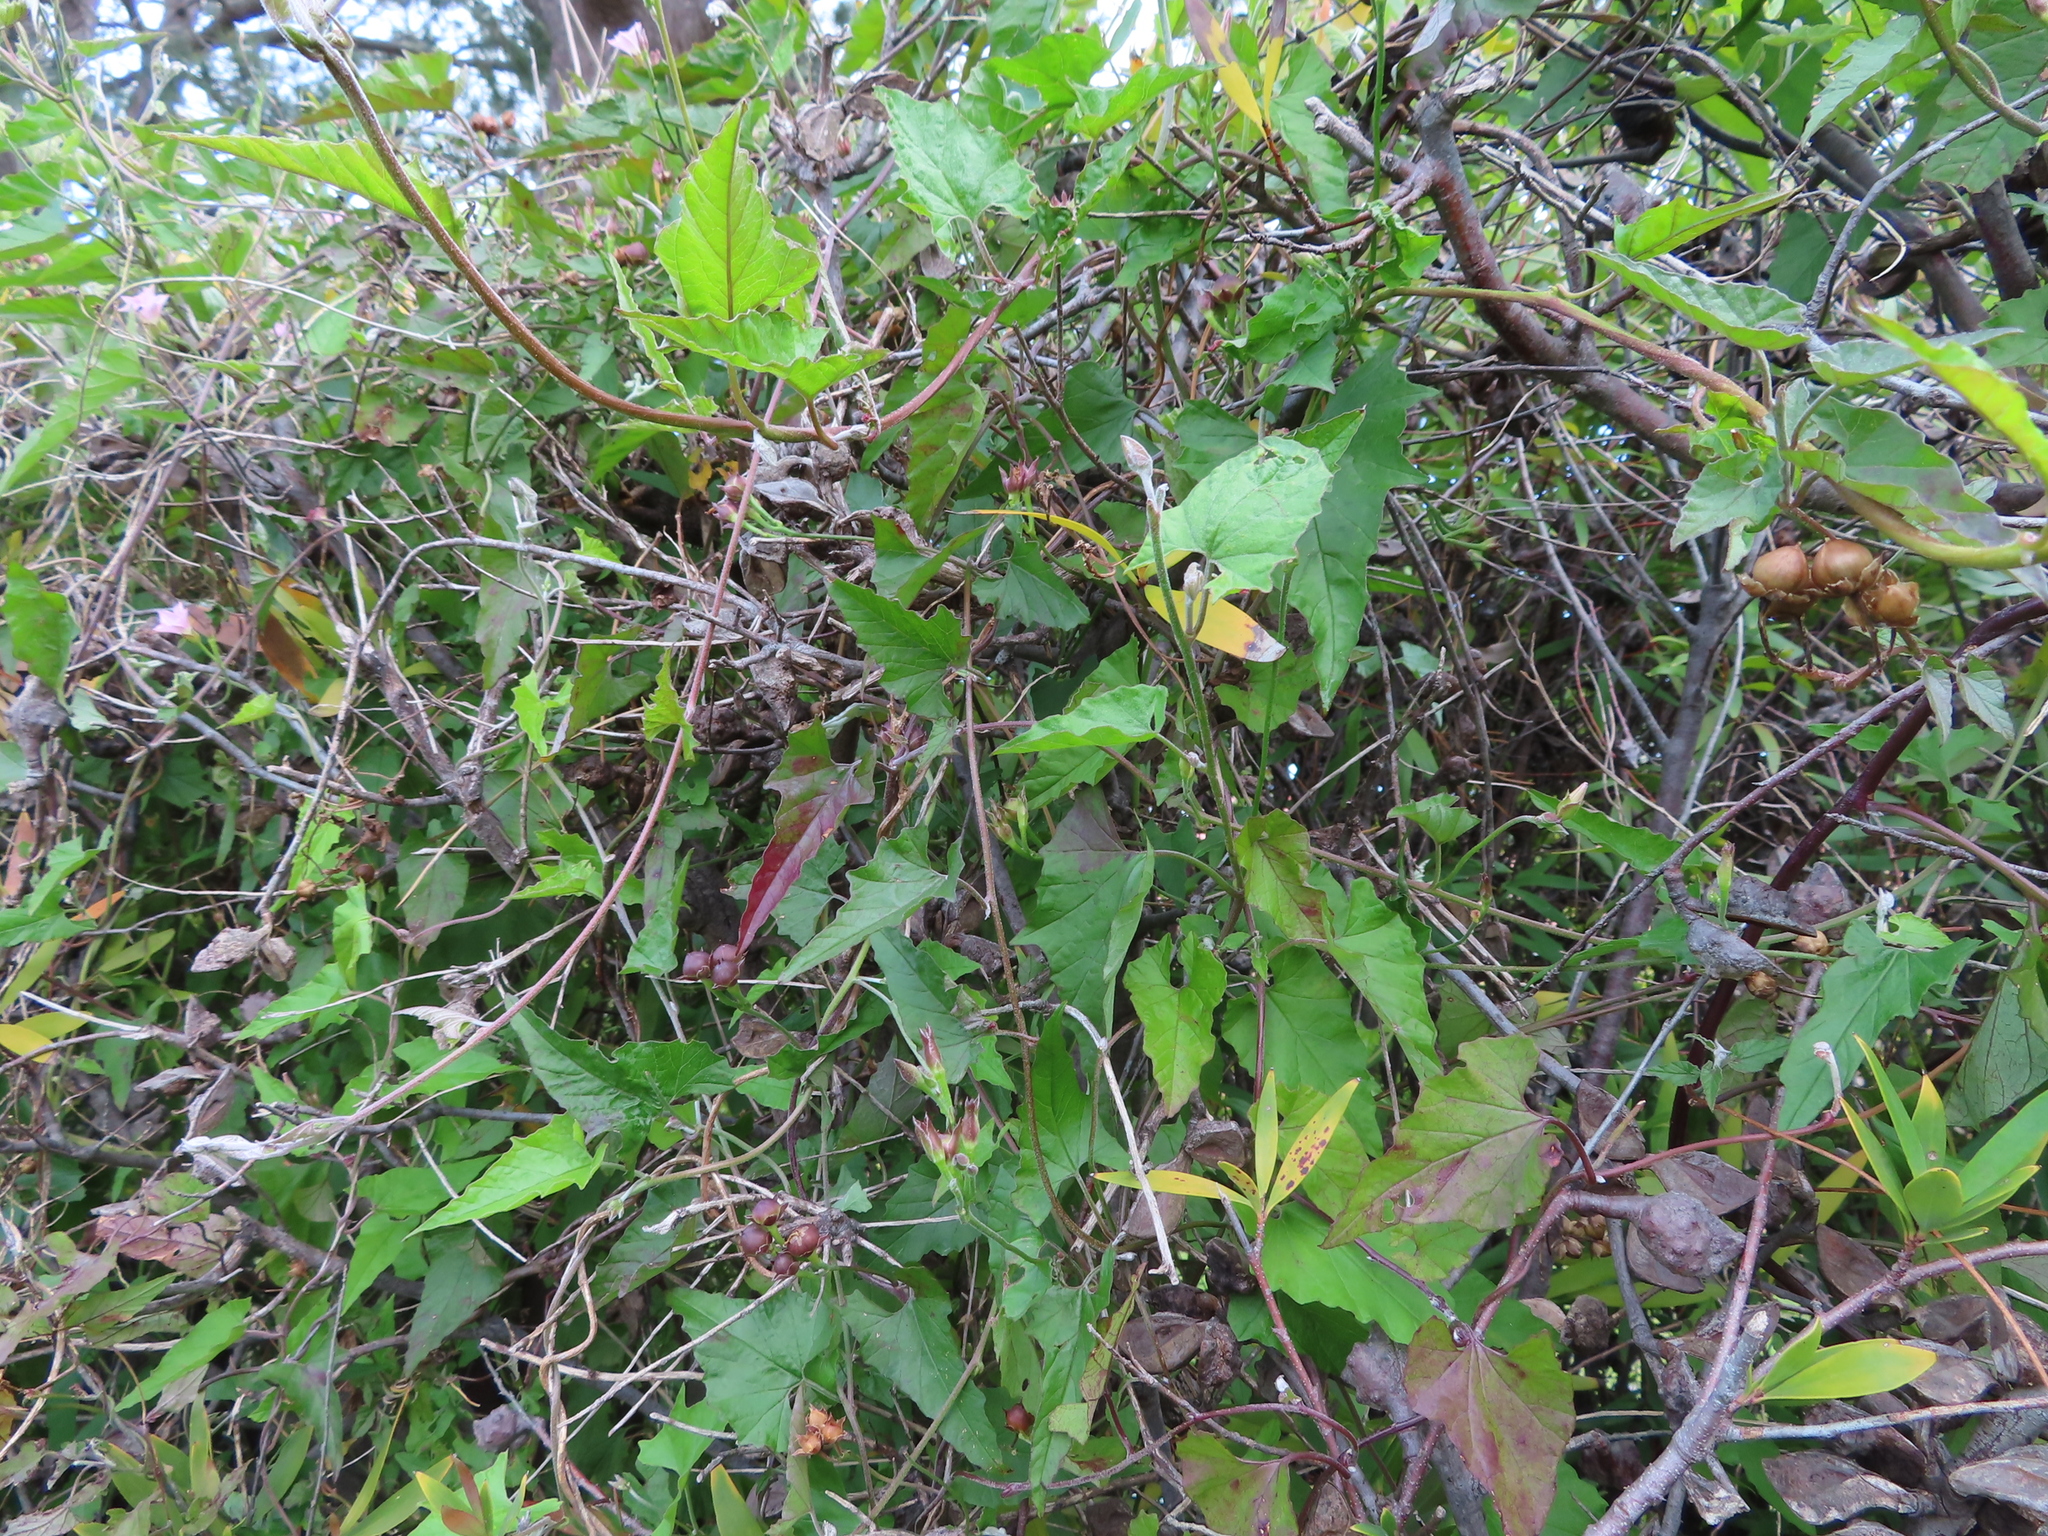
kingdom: Plantae
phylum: Tracheophyta
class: Magnoliopsida
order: Solanales
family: Convolvulaceae
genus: Convolvulus
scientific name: Convolvulus farinosus
